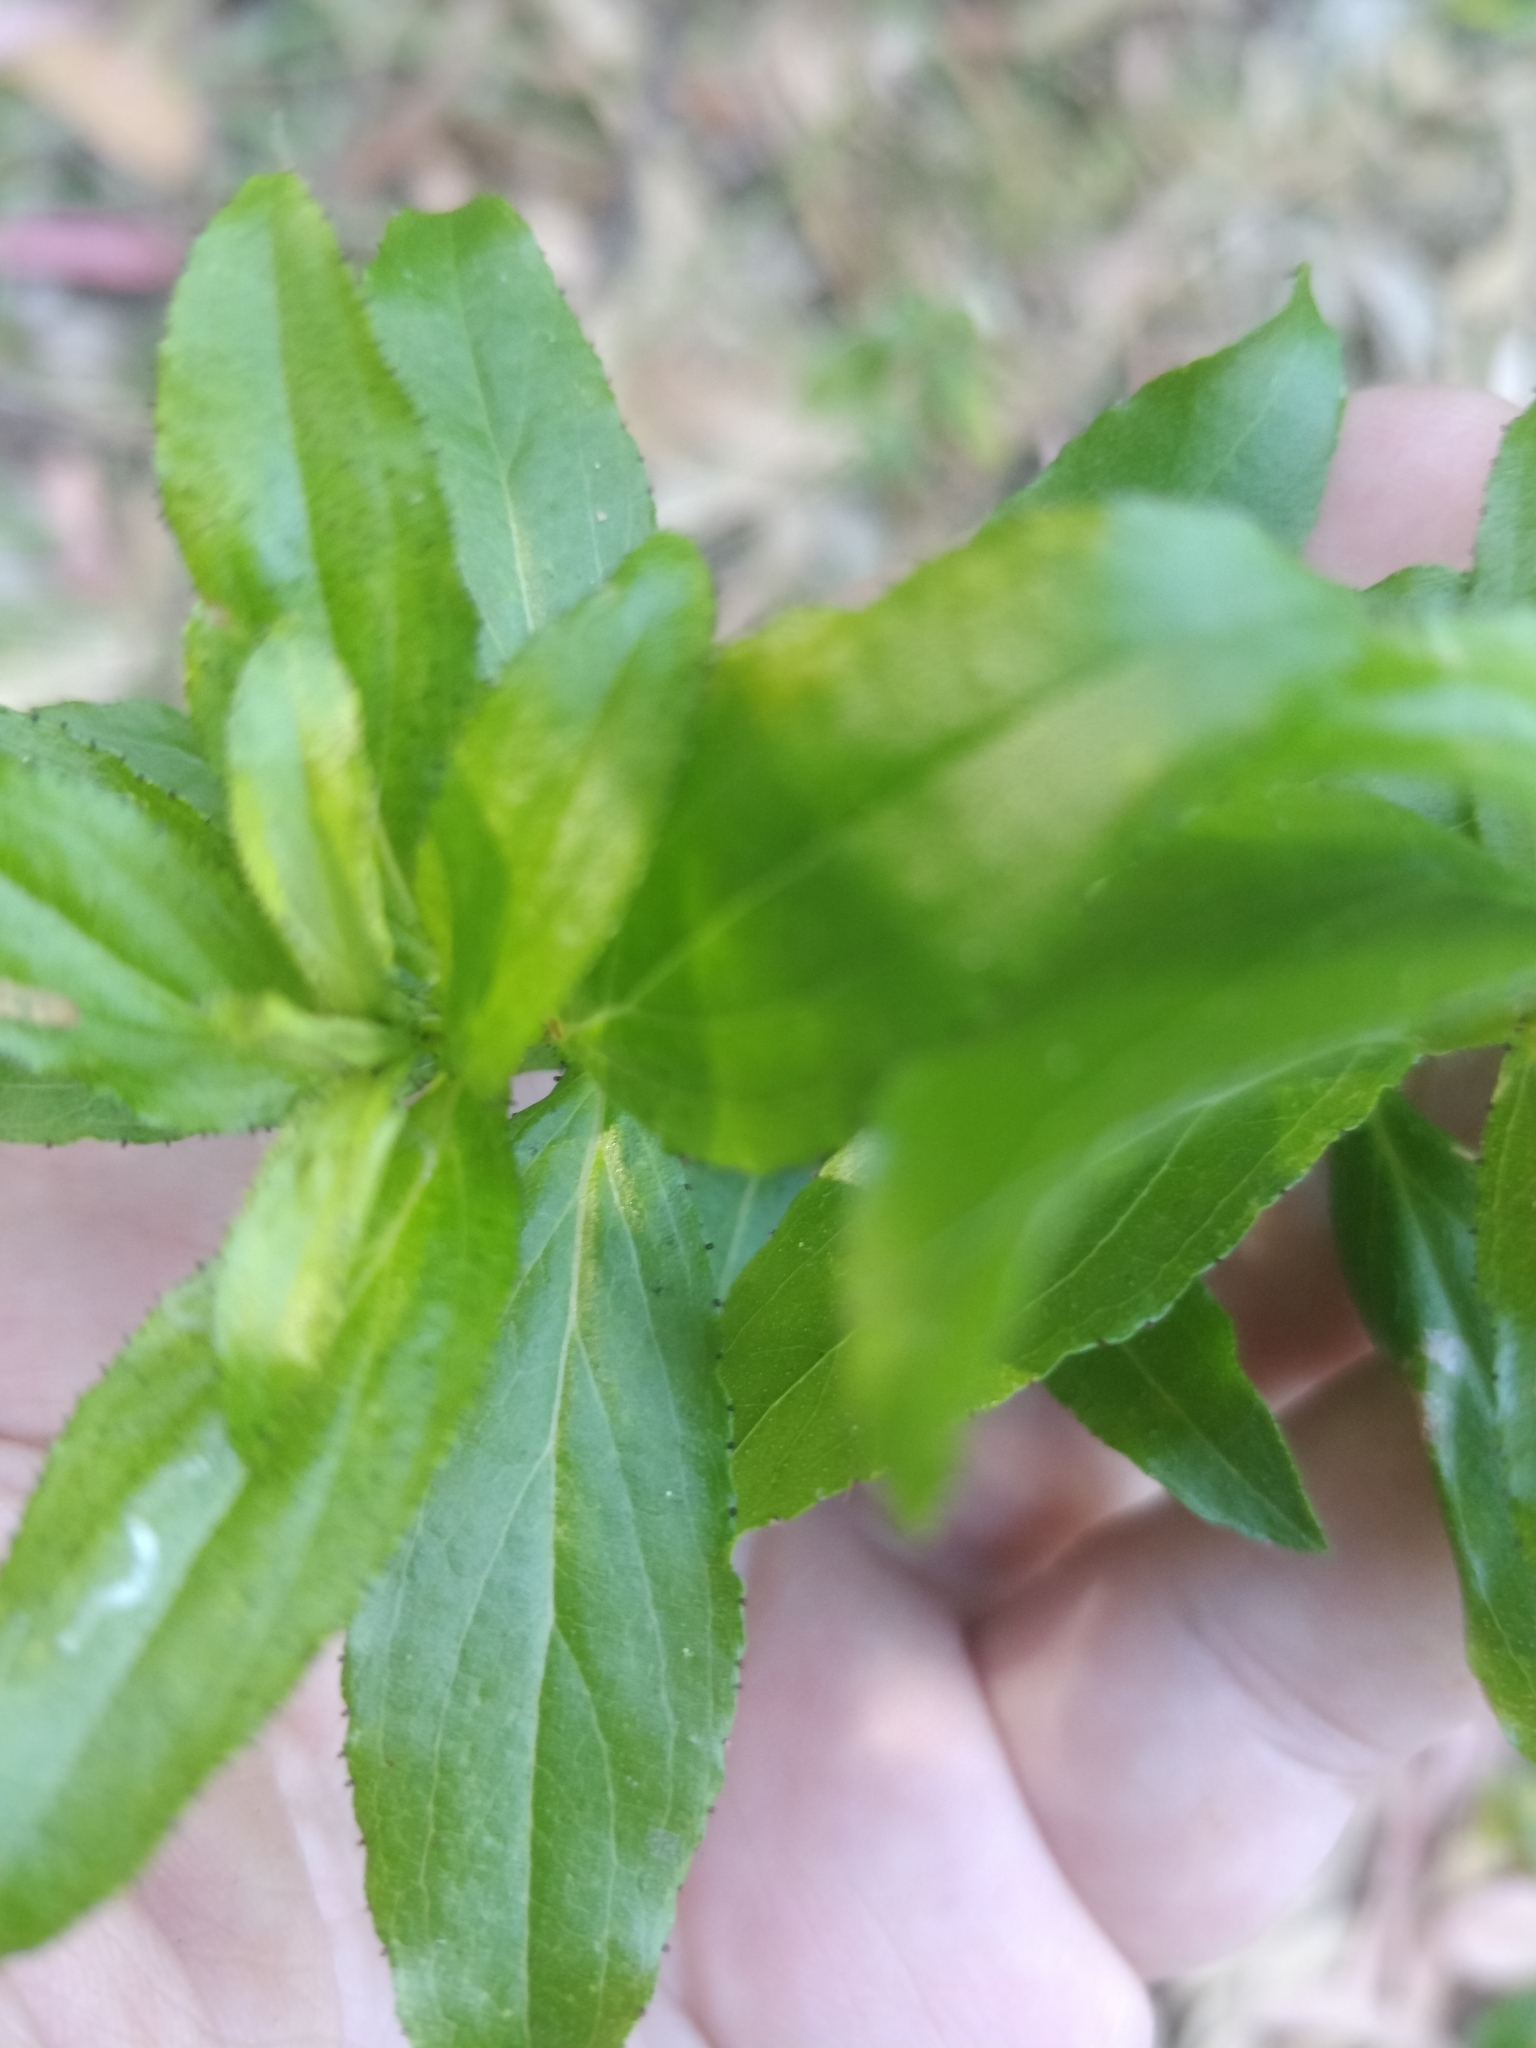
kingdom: Plantae
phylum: Tracheophyta
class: Magnoliopsida
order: Malpighiales
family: Hypericaceae
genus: Hypericum
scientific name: Hypericum glandulosum
